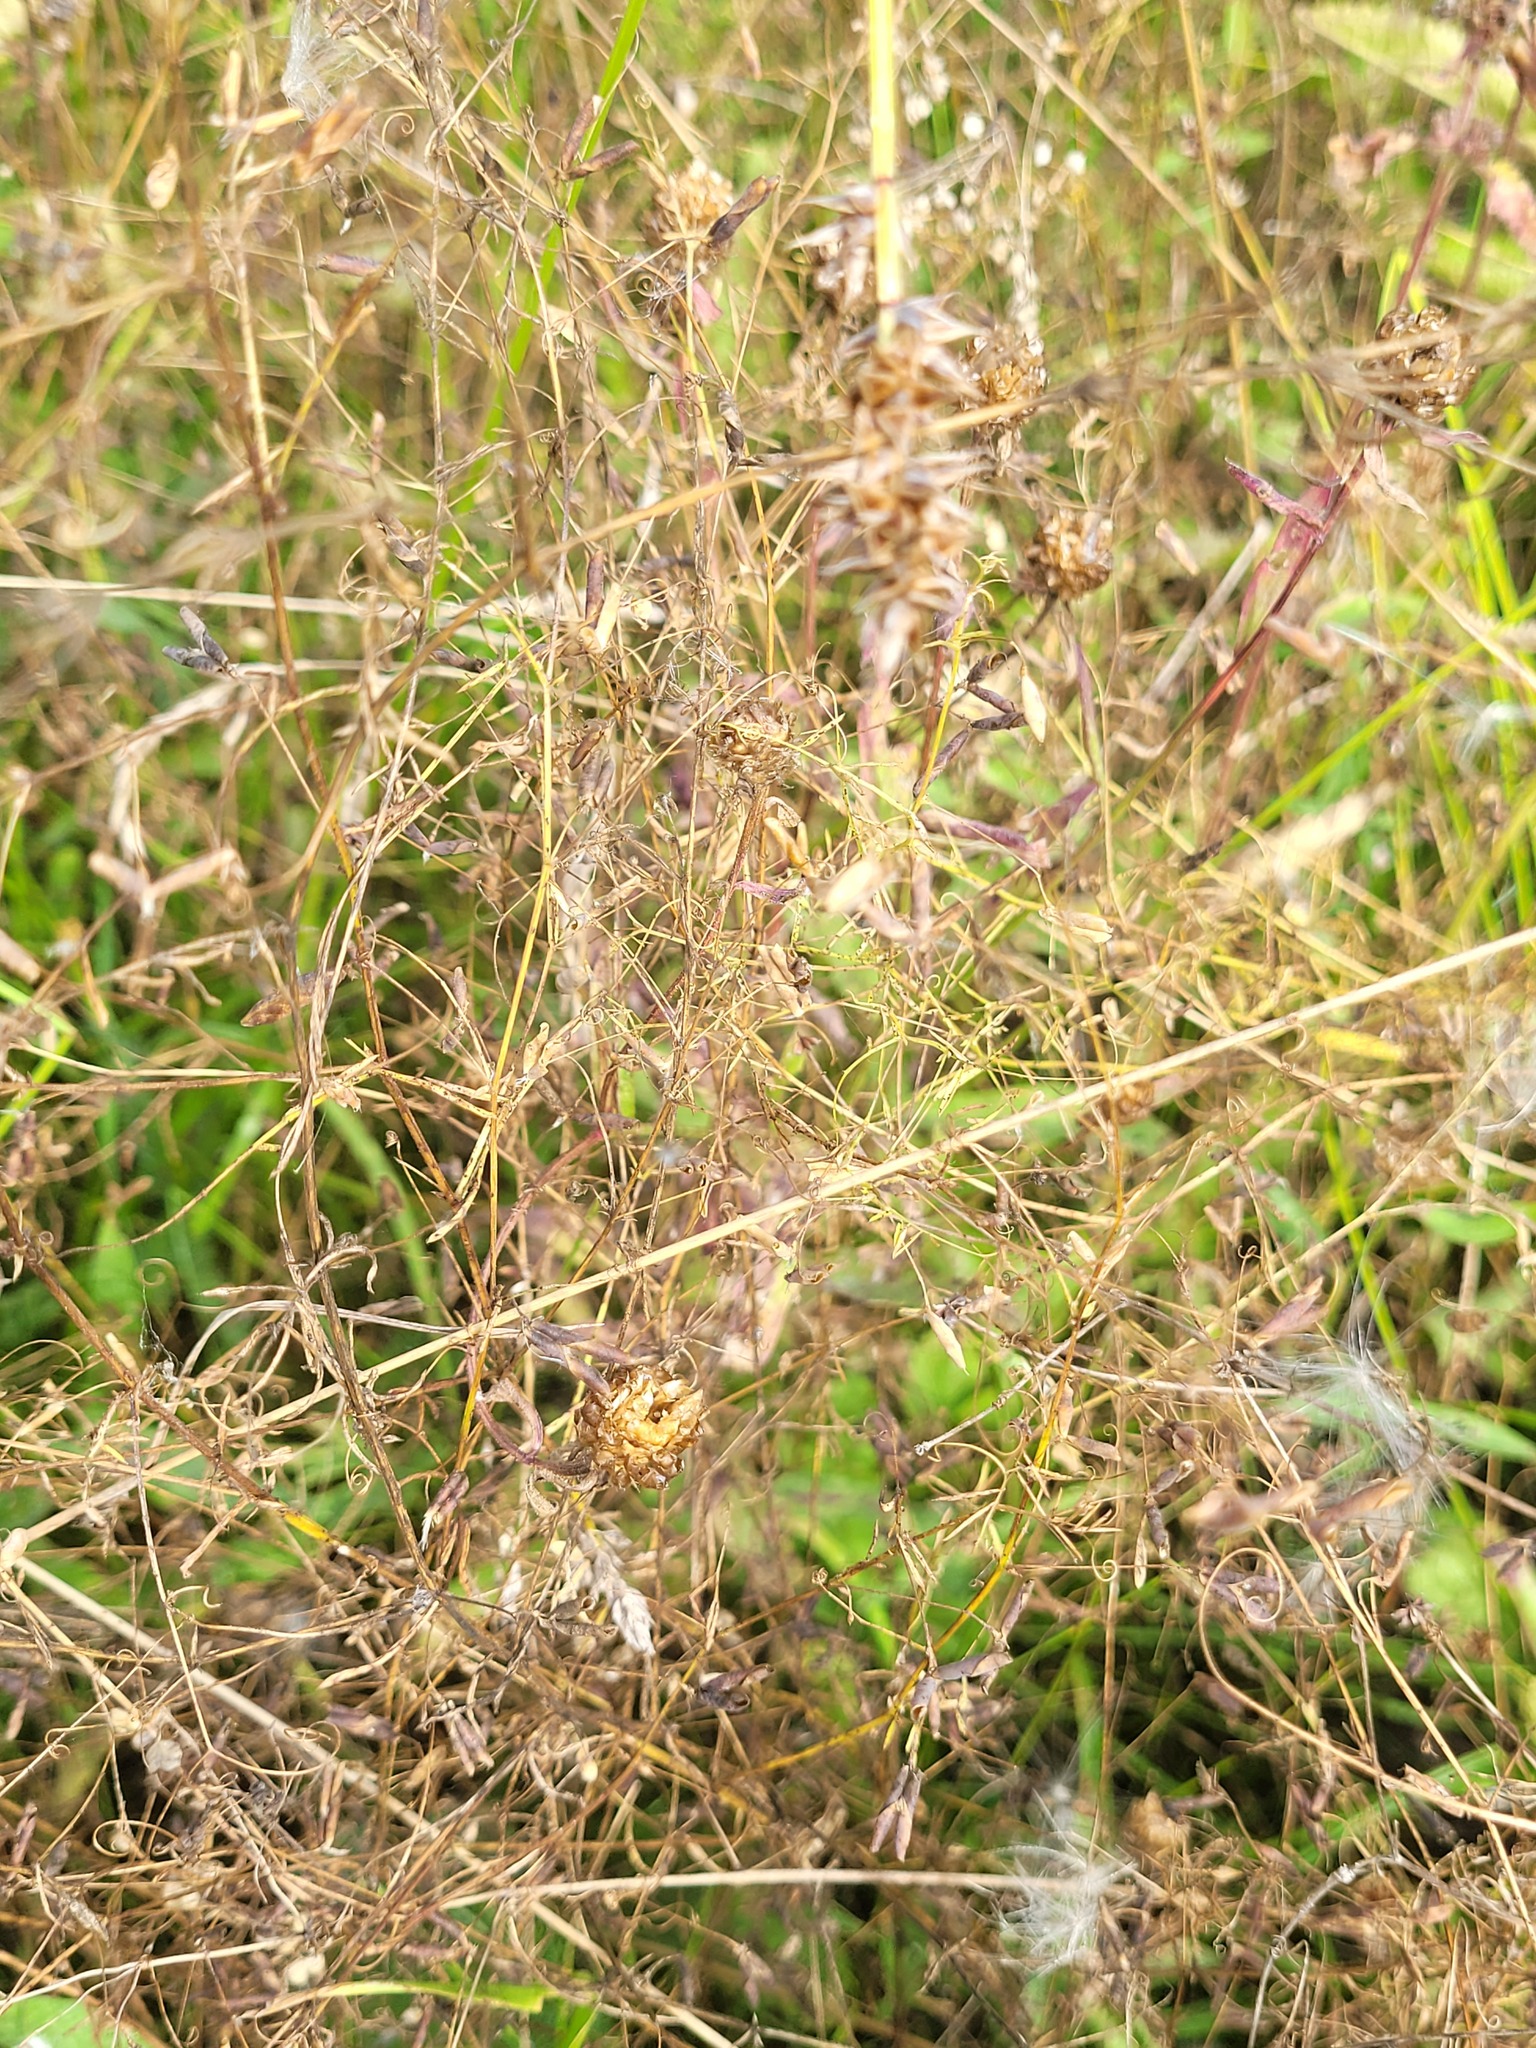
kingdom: Plantae
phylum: Tracheophyta
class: Magnoliopsida
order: Fabales
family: Fabaceae
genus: Vicia
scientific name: Vicia tetrasperma
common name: Smooth tare
